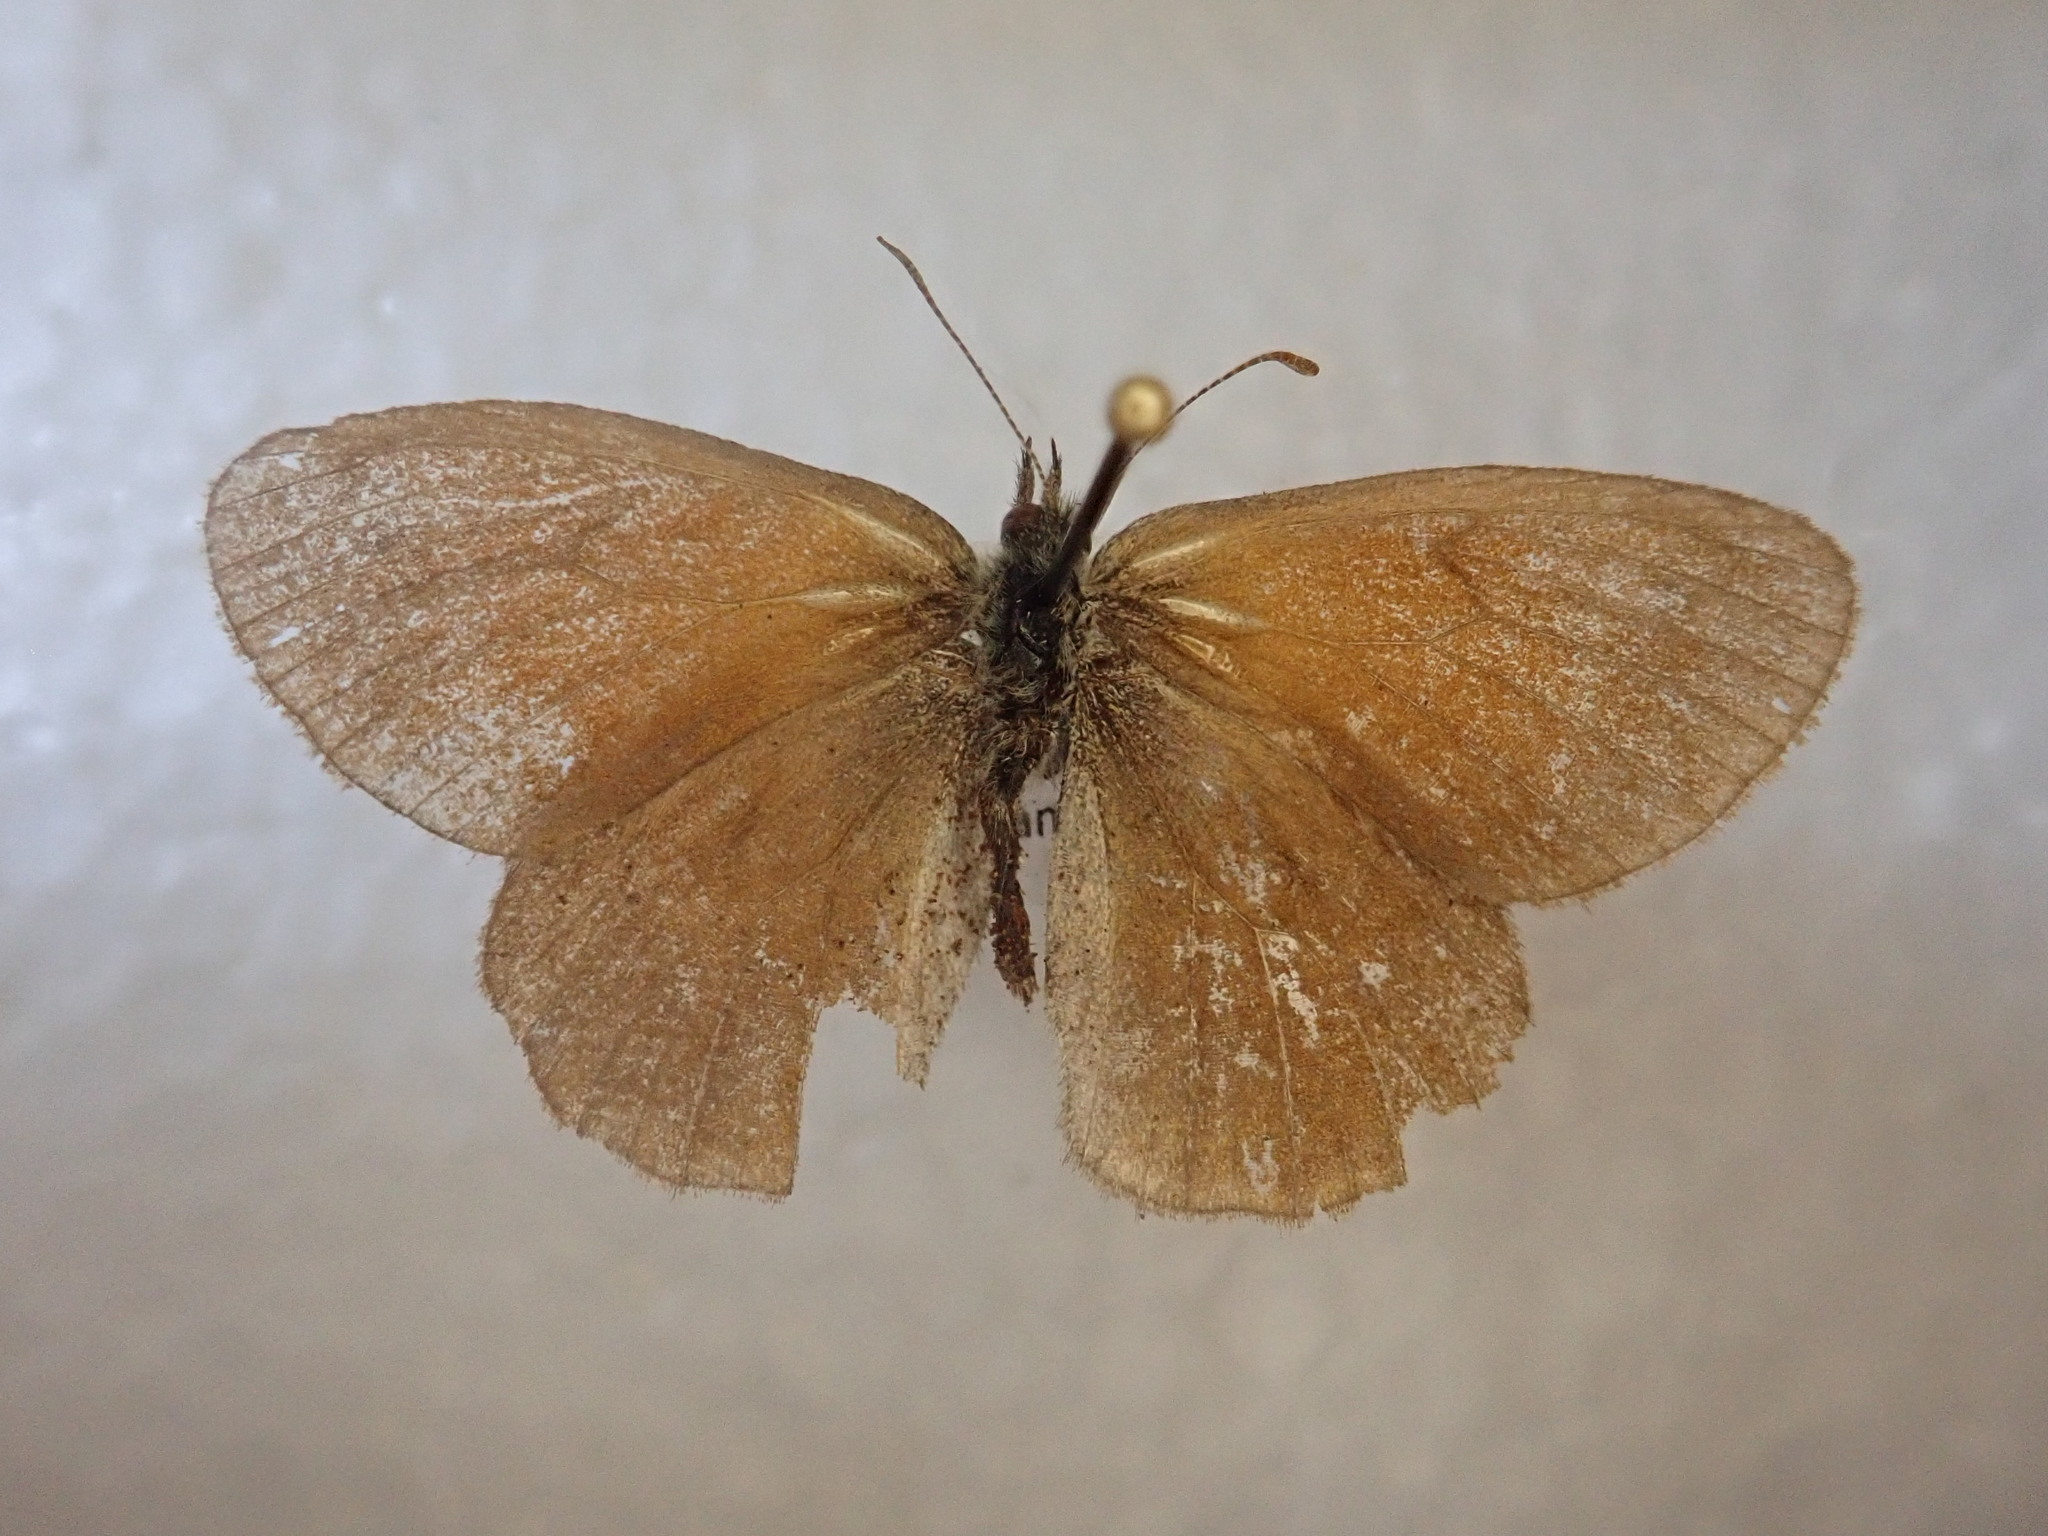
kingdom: Animalia
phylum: Arthropoda
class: Insecta
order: Lepidoptera
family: Nymphalidae
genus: Coenonympha
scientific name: Coenonympha california
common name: Common ringlet
